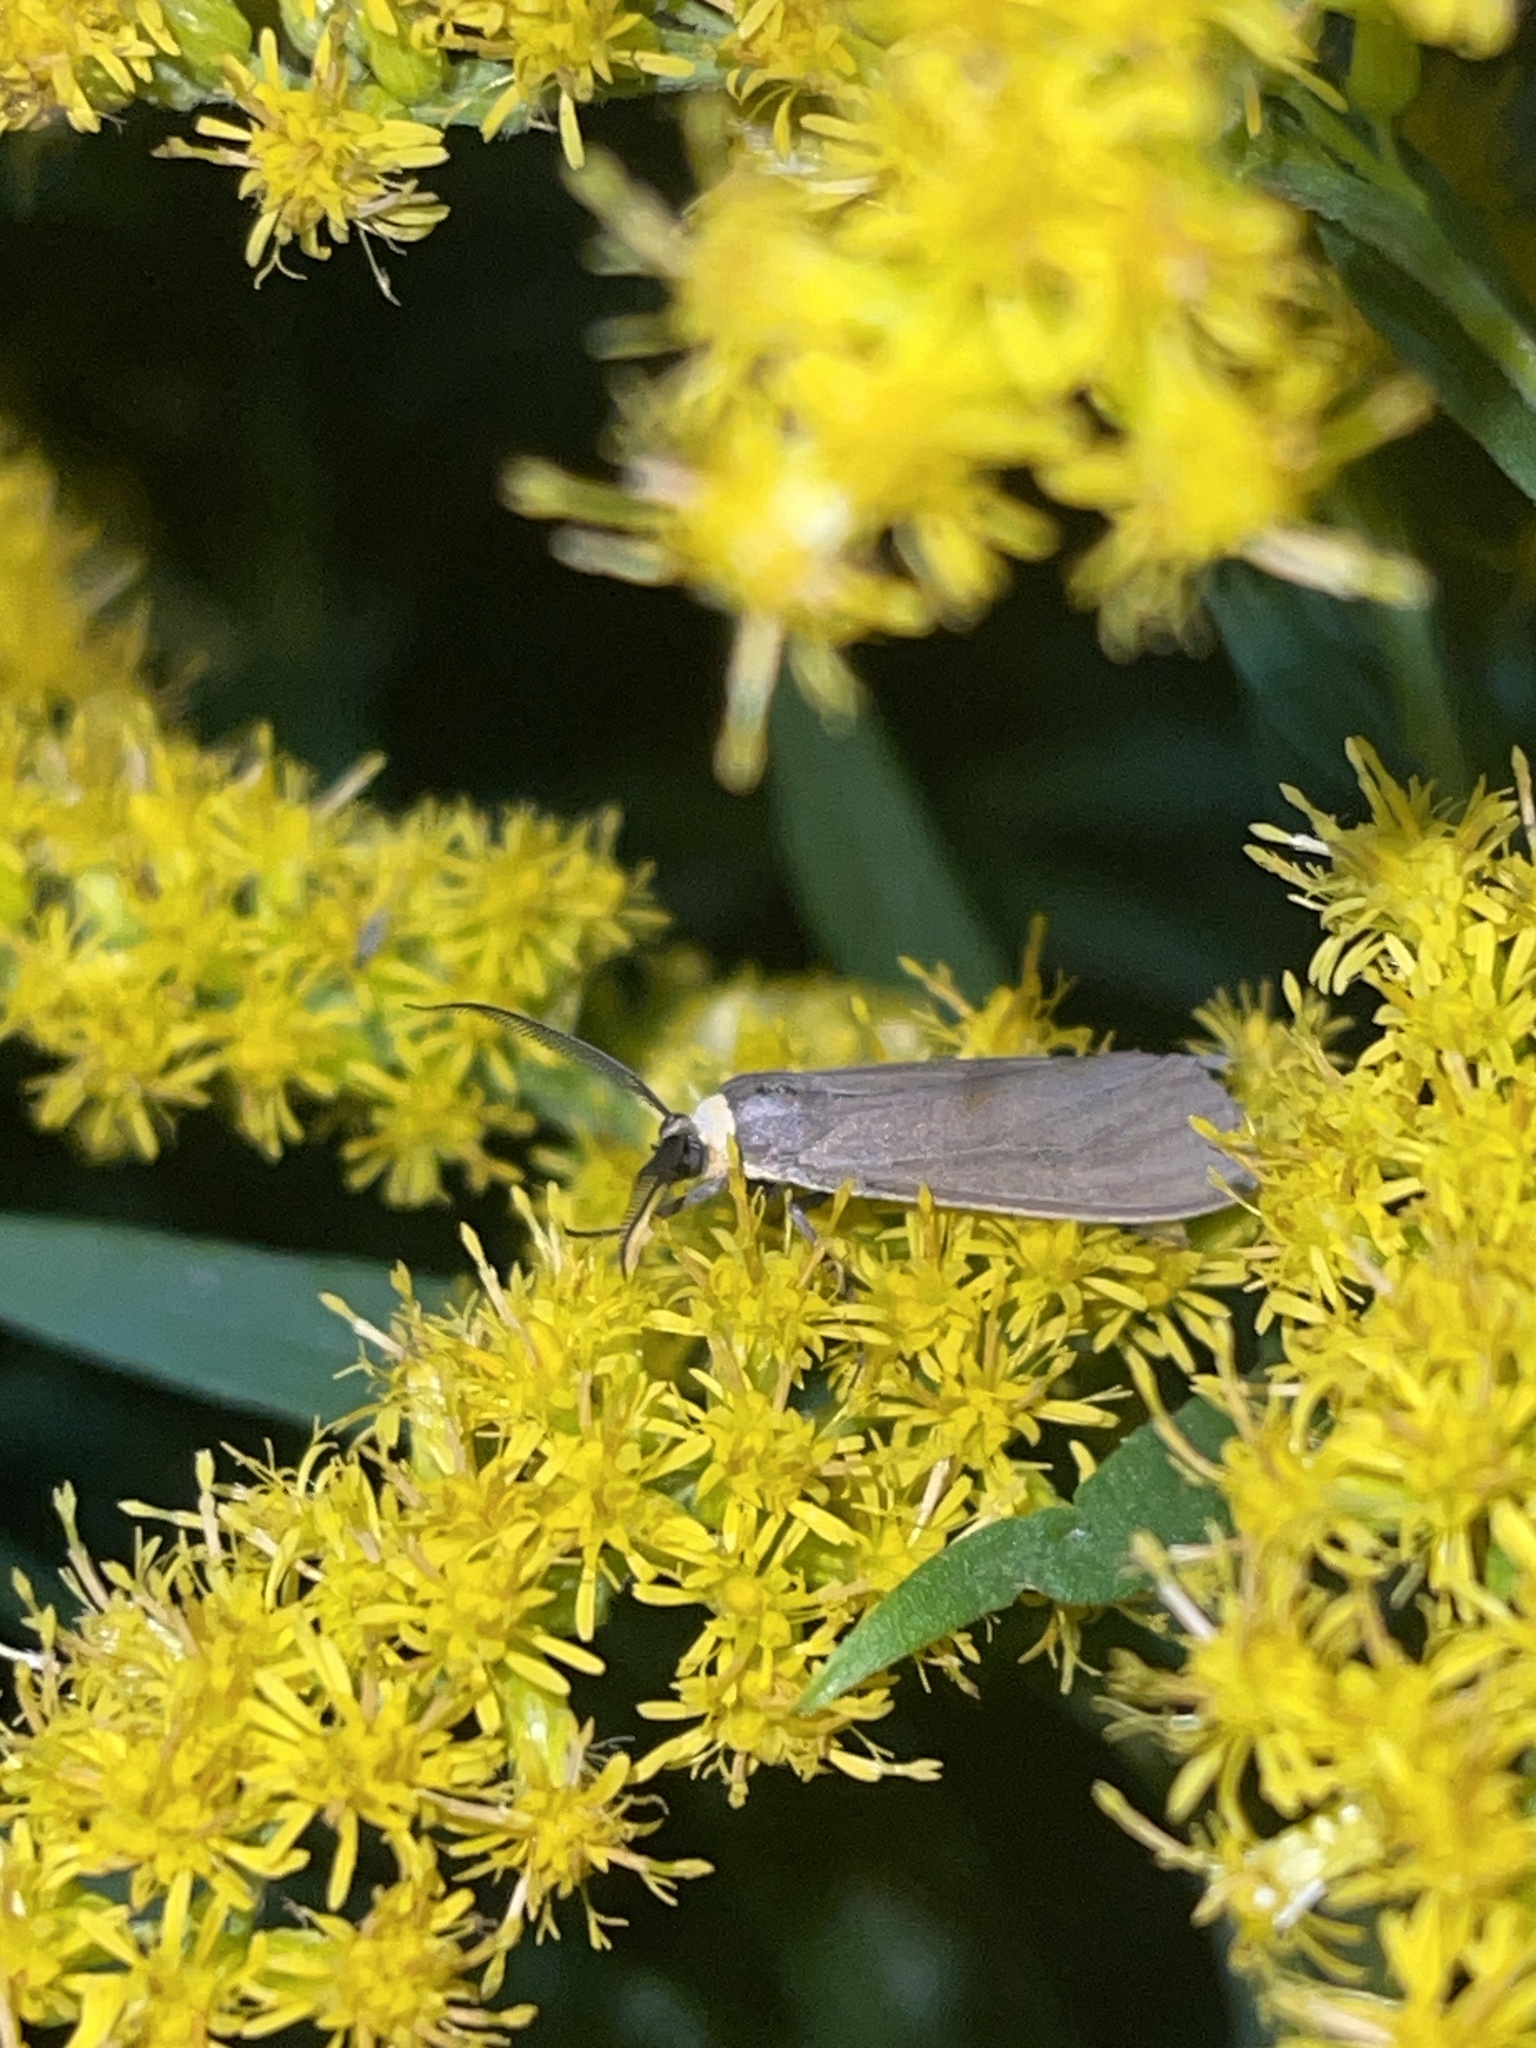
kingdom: Animalia
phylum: Arthropoda
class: Insecta
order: Lepidoptera
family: Erebidae
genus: Cisseps
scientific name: Cisseps fulvicollis
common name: Yellow-collared scape moth
